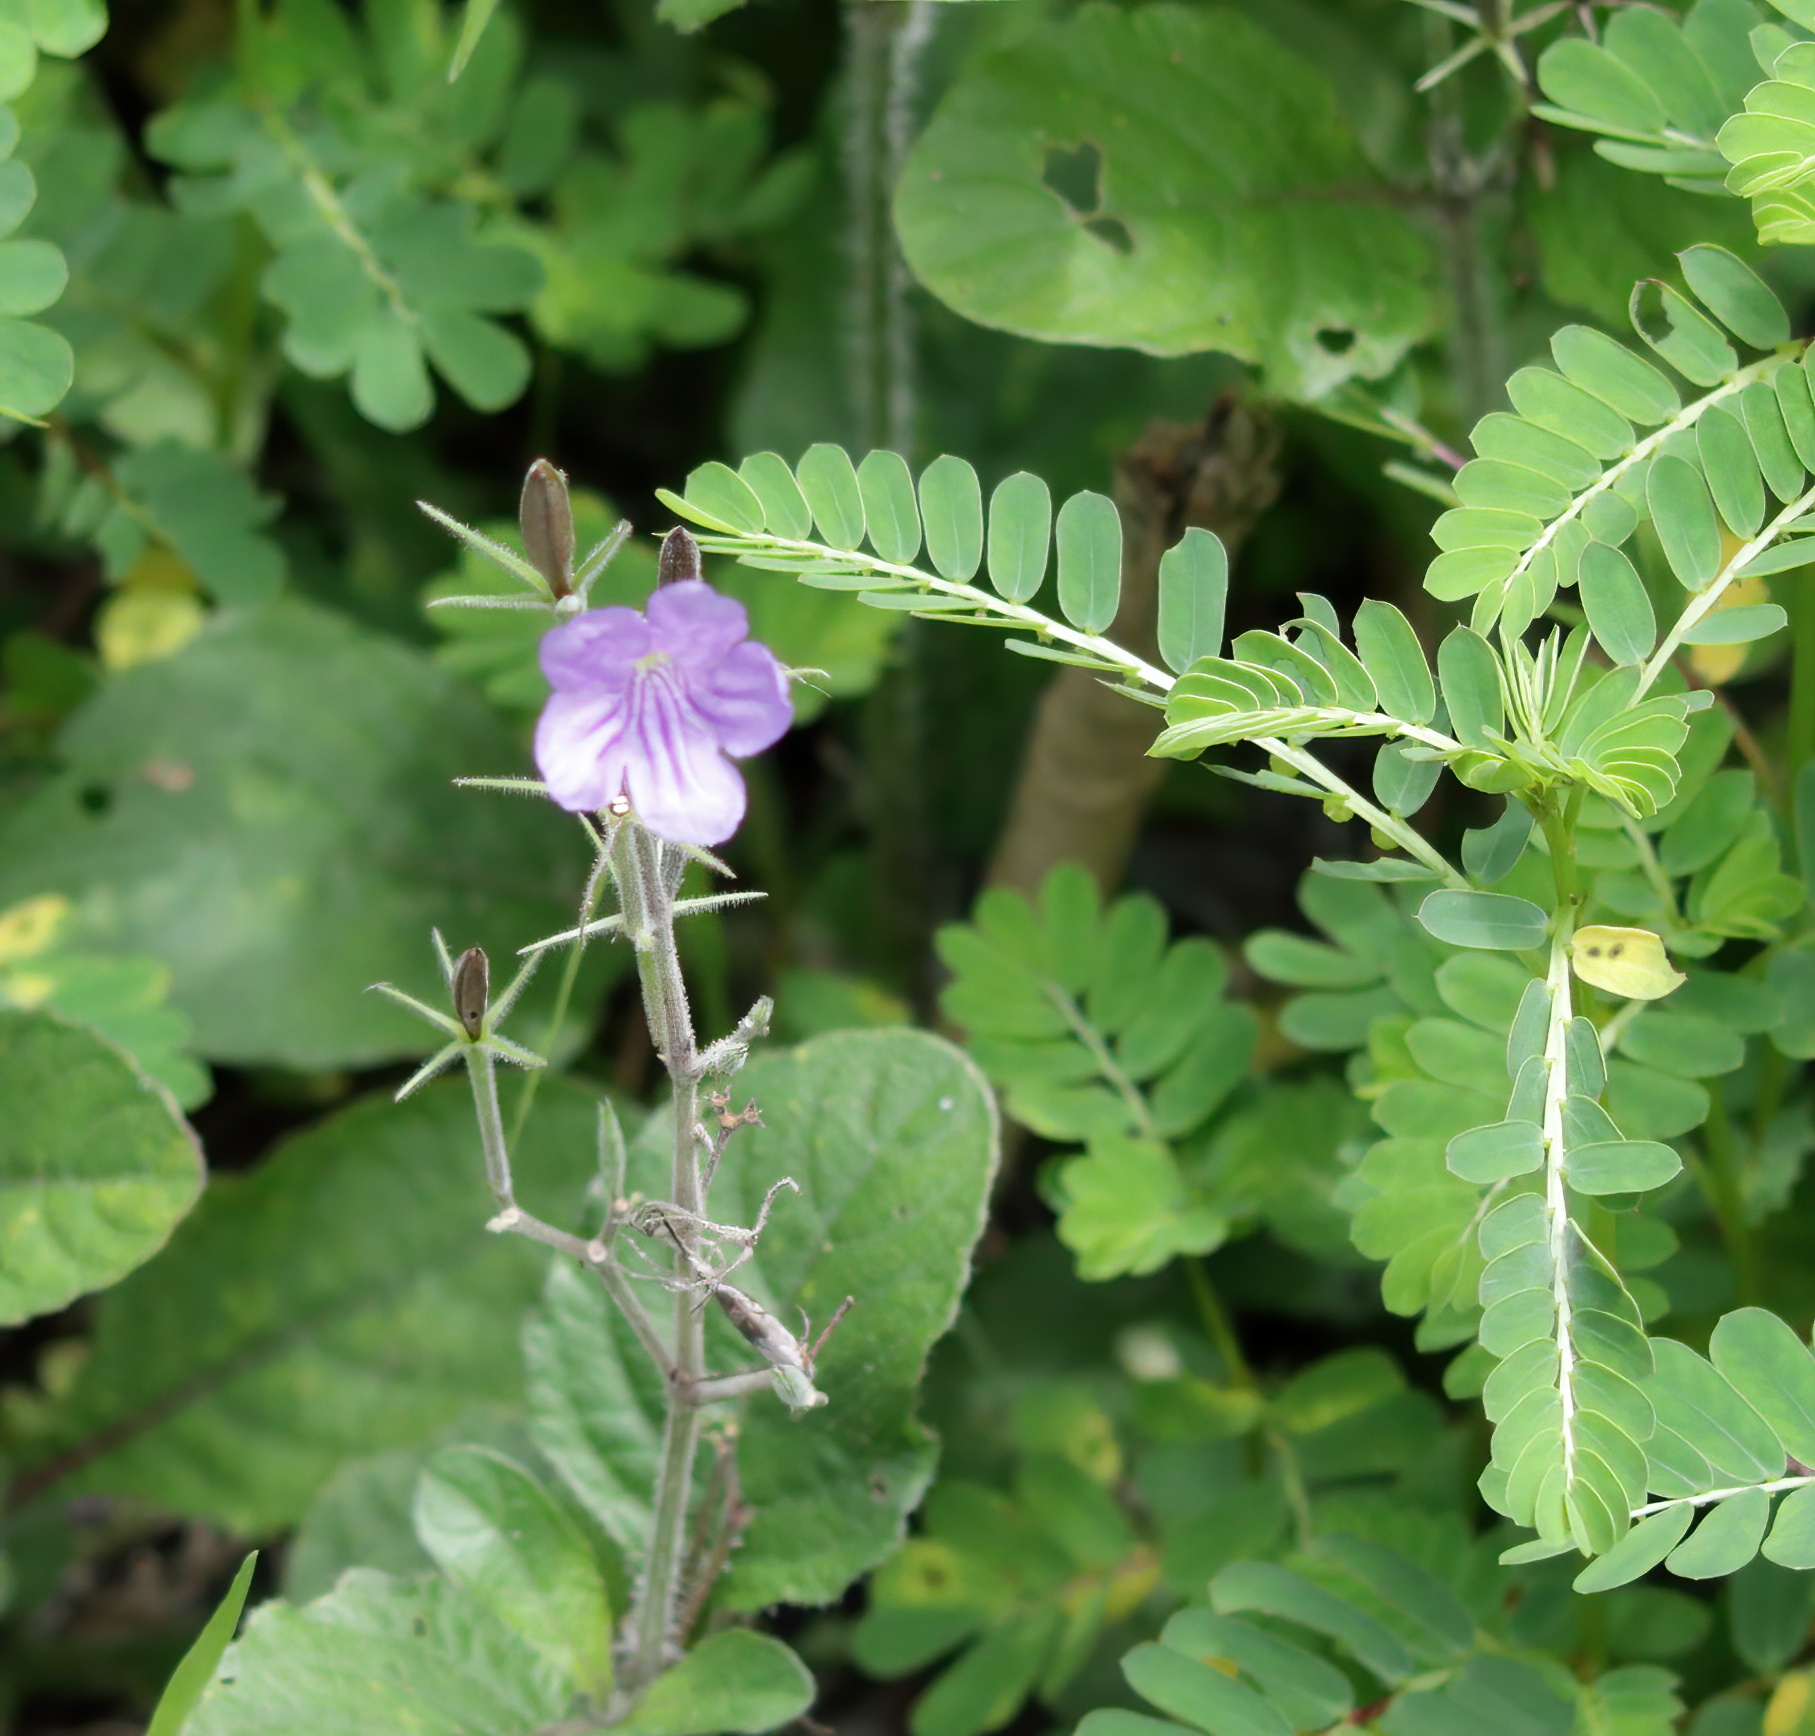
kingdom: Plantae
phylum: Tracheophyta
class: Magnoliopsida
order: Lamiales
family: Acanthaceae
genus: Ruellia
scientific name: Ruellia ciliatiflora
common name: Hairyflower wild petunia
